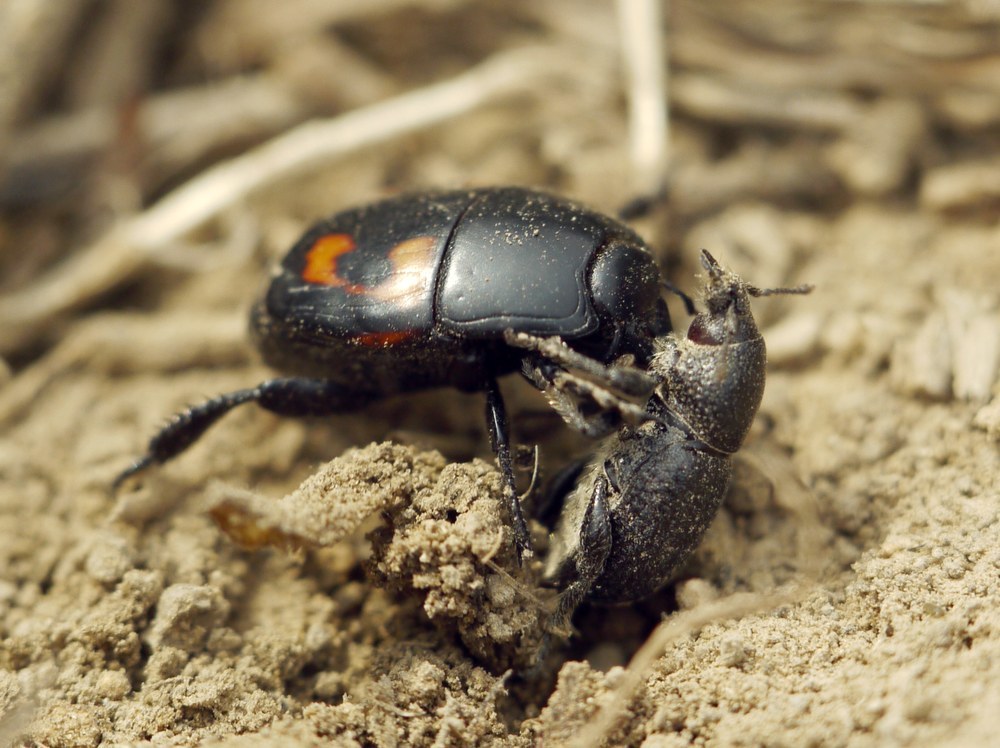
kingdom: Animalia
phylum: Arthropoda
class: Insecta
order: Coleoptera
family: Curculionidae
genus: Psallidium
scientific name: Psallidium maxillosum
